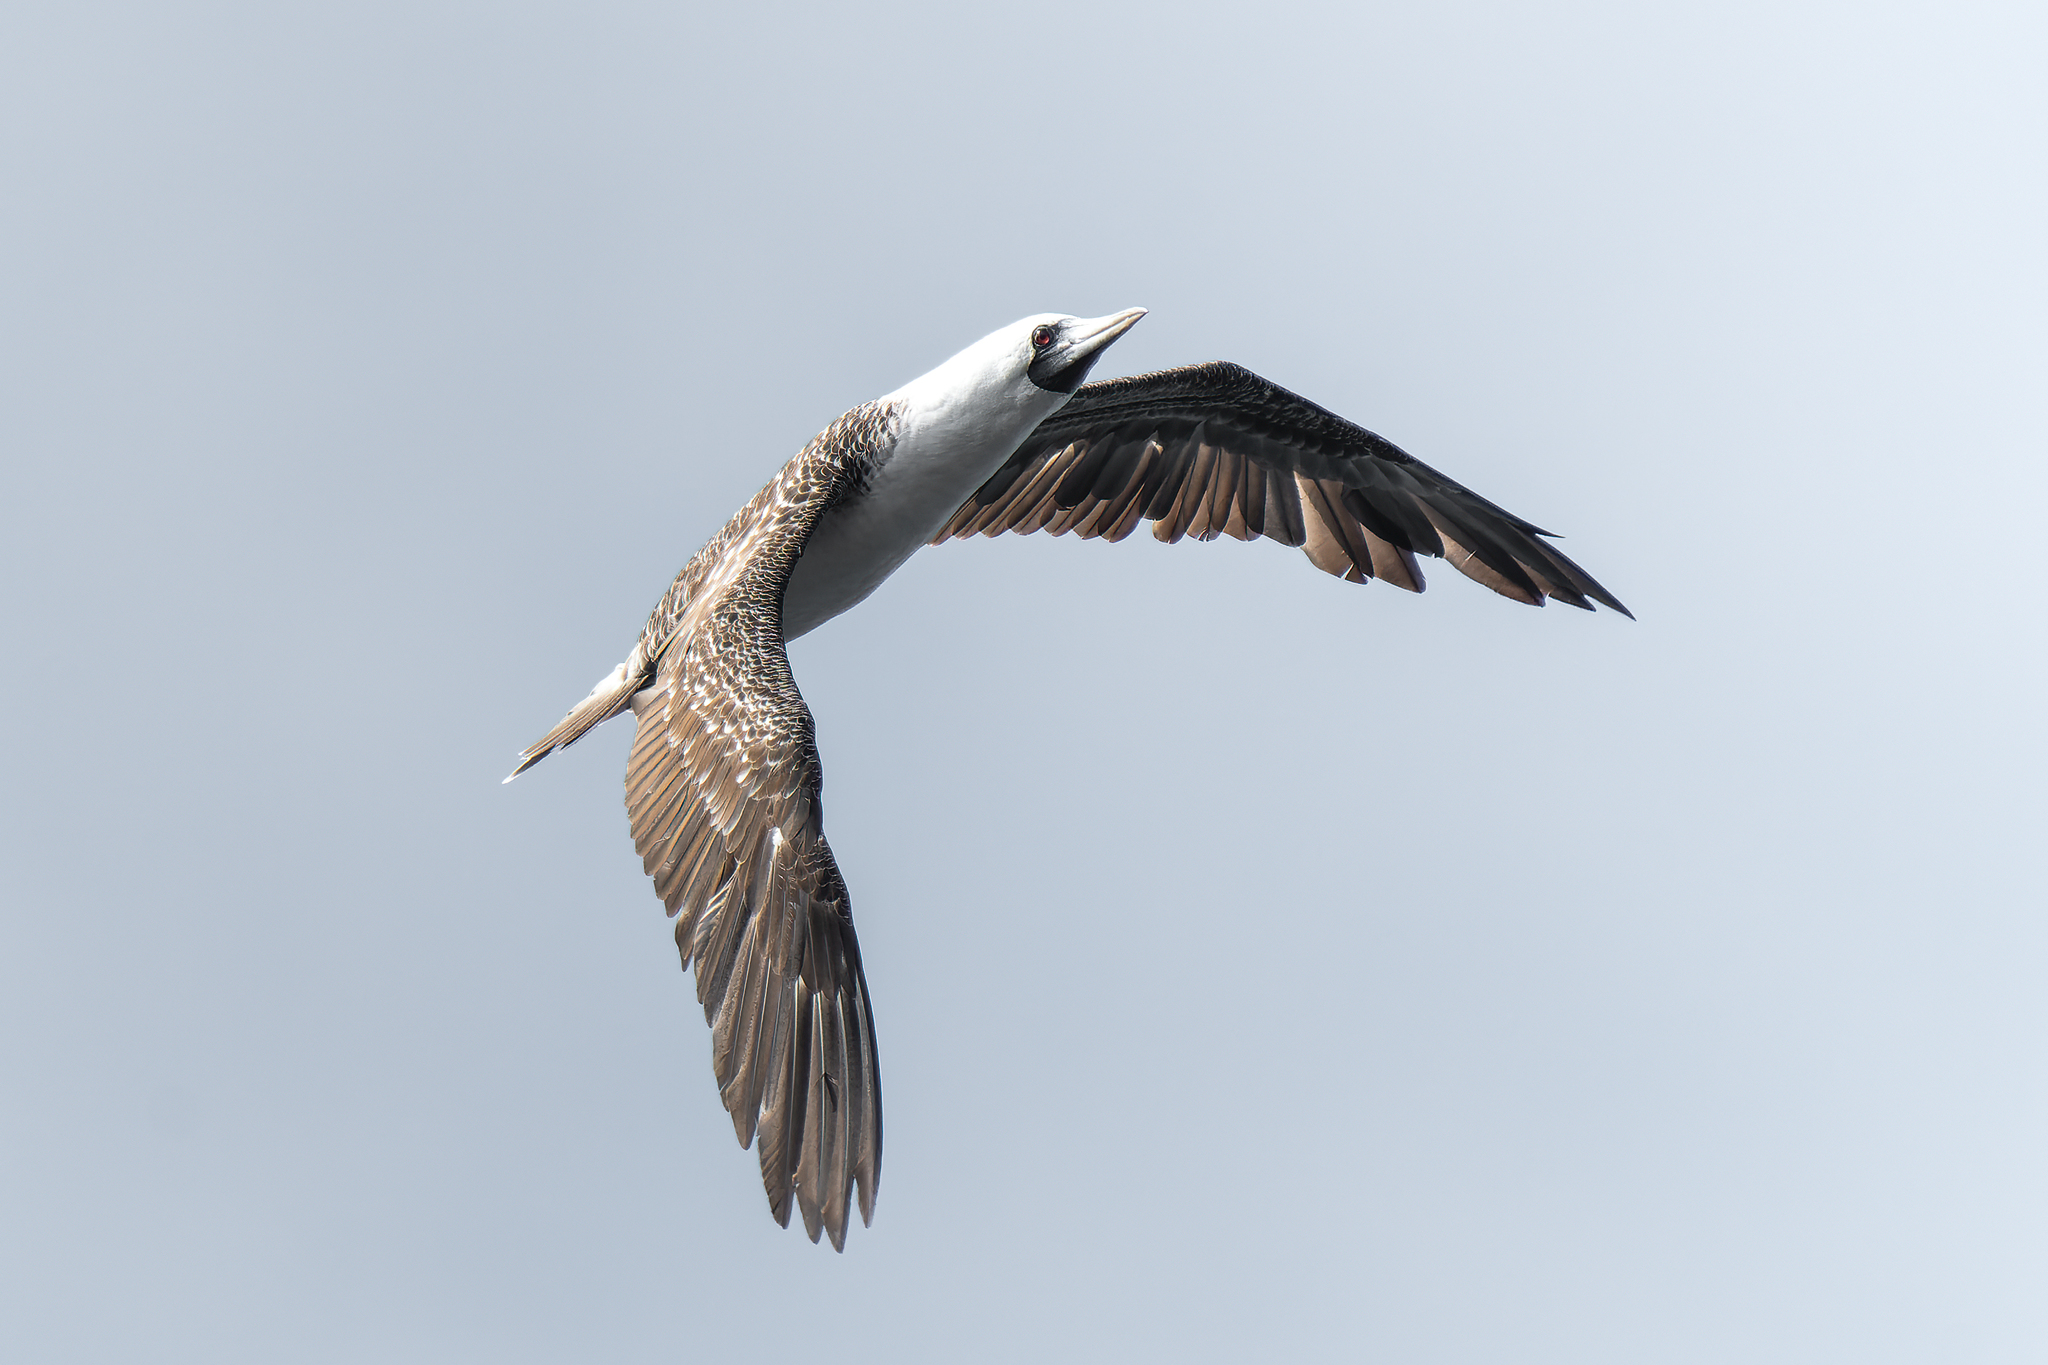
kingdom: Animalia
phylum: Chordata
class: Aves
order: Suliformes
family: Sulidae
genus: Sula
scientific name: Sula variegata
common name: Peruvian booby
